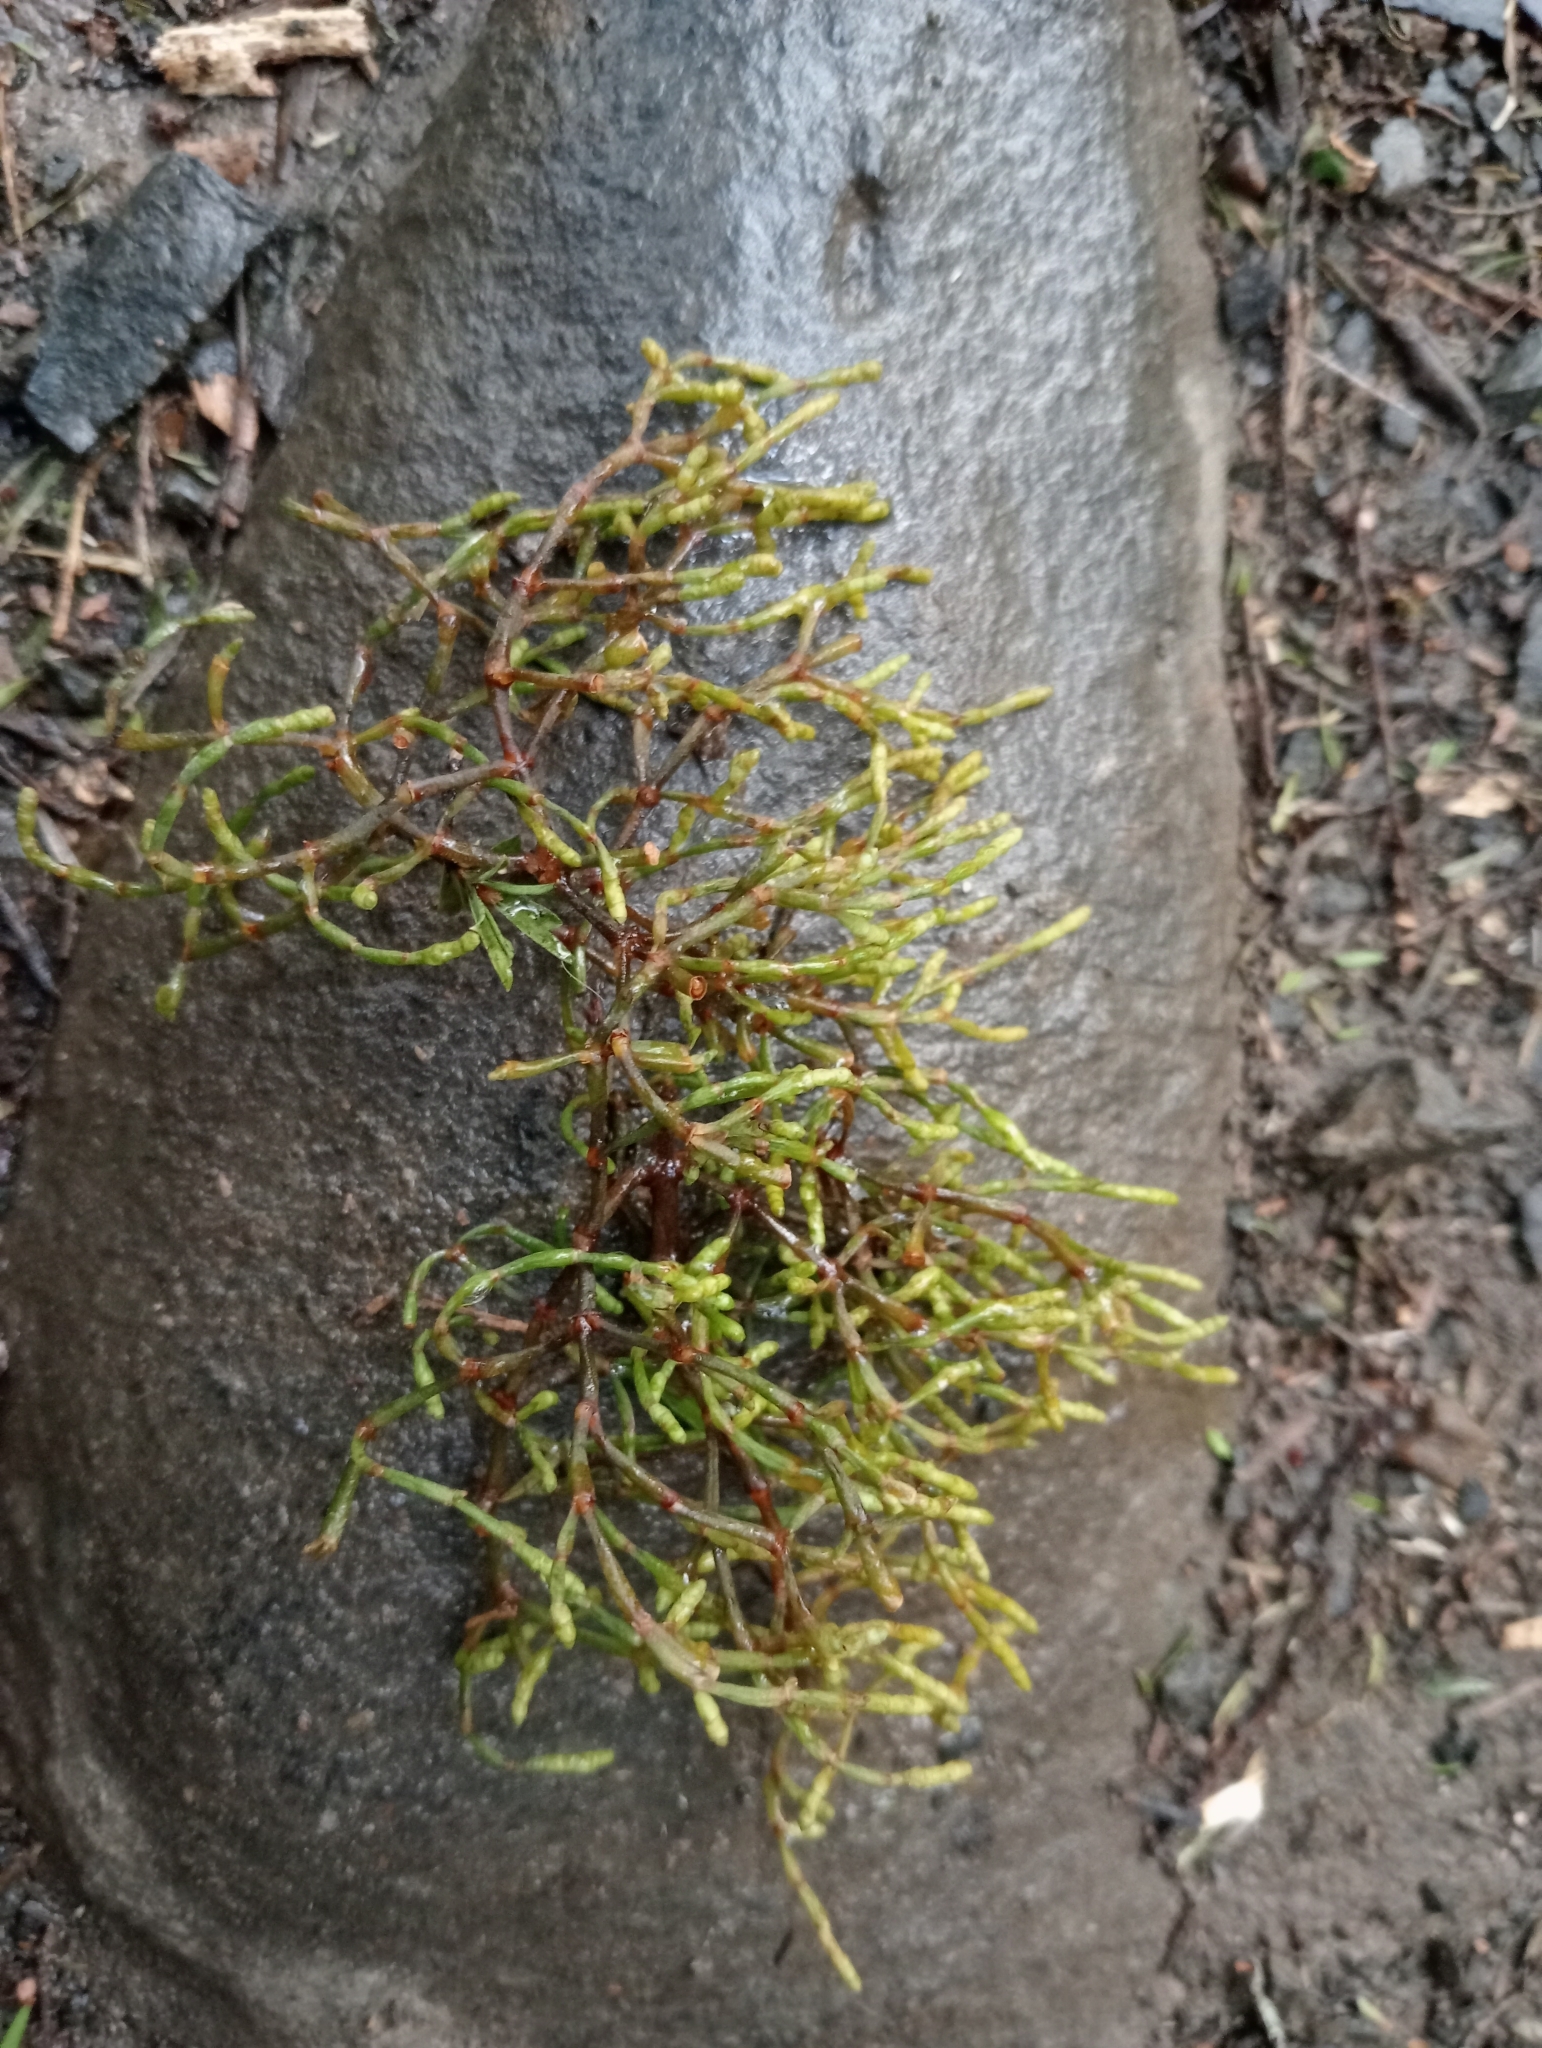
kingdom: Plantae
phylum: Tracheophyta
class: Magnoliopsida
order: Santalales
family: Viscaceae
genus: Korthalsella
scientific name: Korthalsella salicornioides
